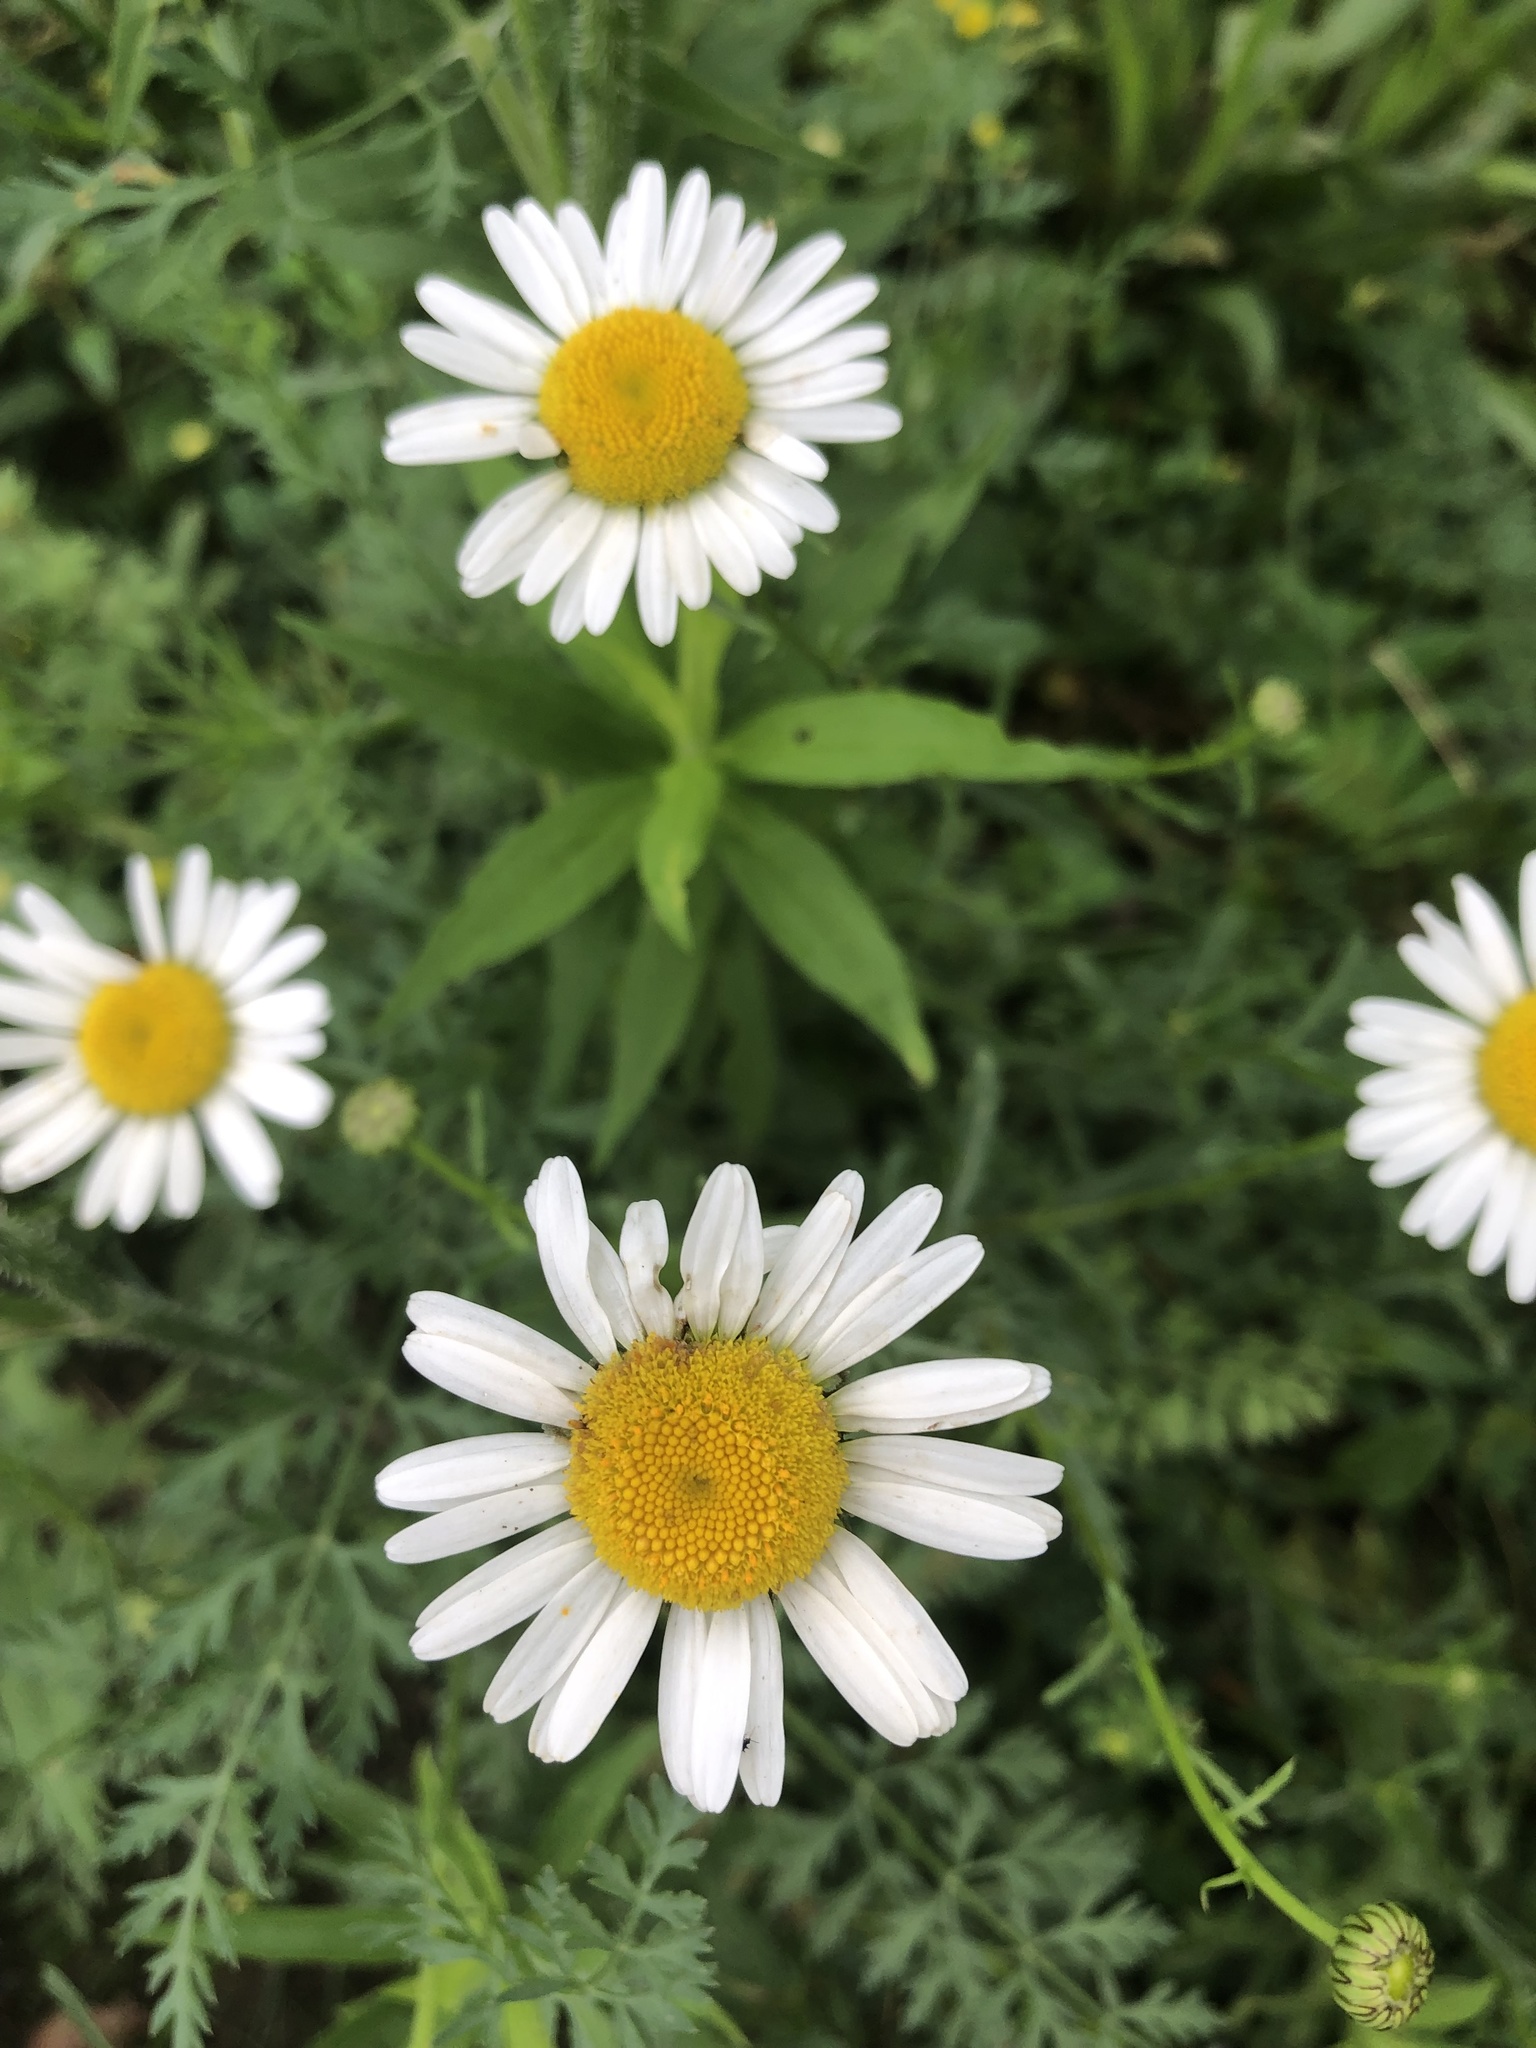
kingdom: Plantae
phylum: Tracheophyta
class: Magnoliopsida
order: Asterales
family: Asteraceae
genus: Leucanthemum
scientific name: Leucanthemum vulgare
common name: Oxeye daisy
